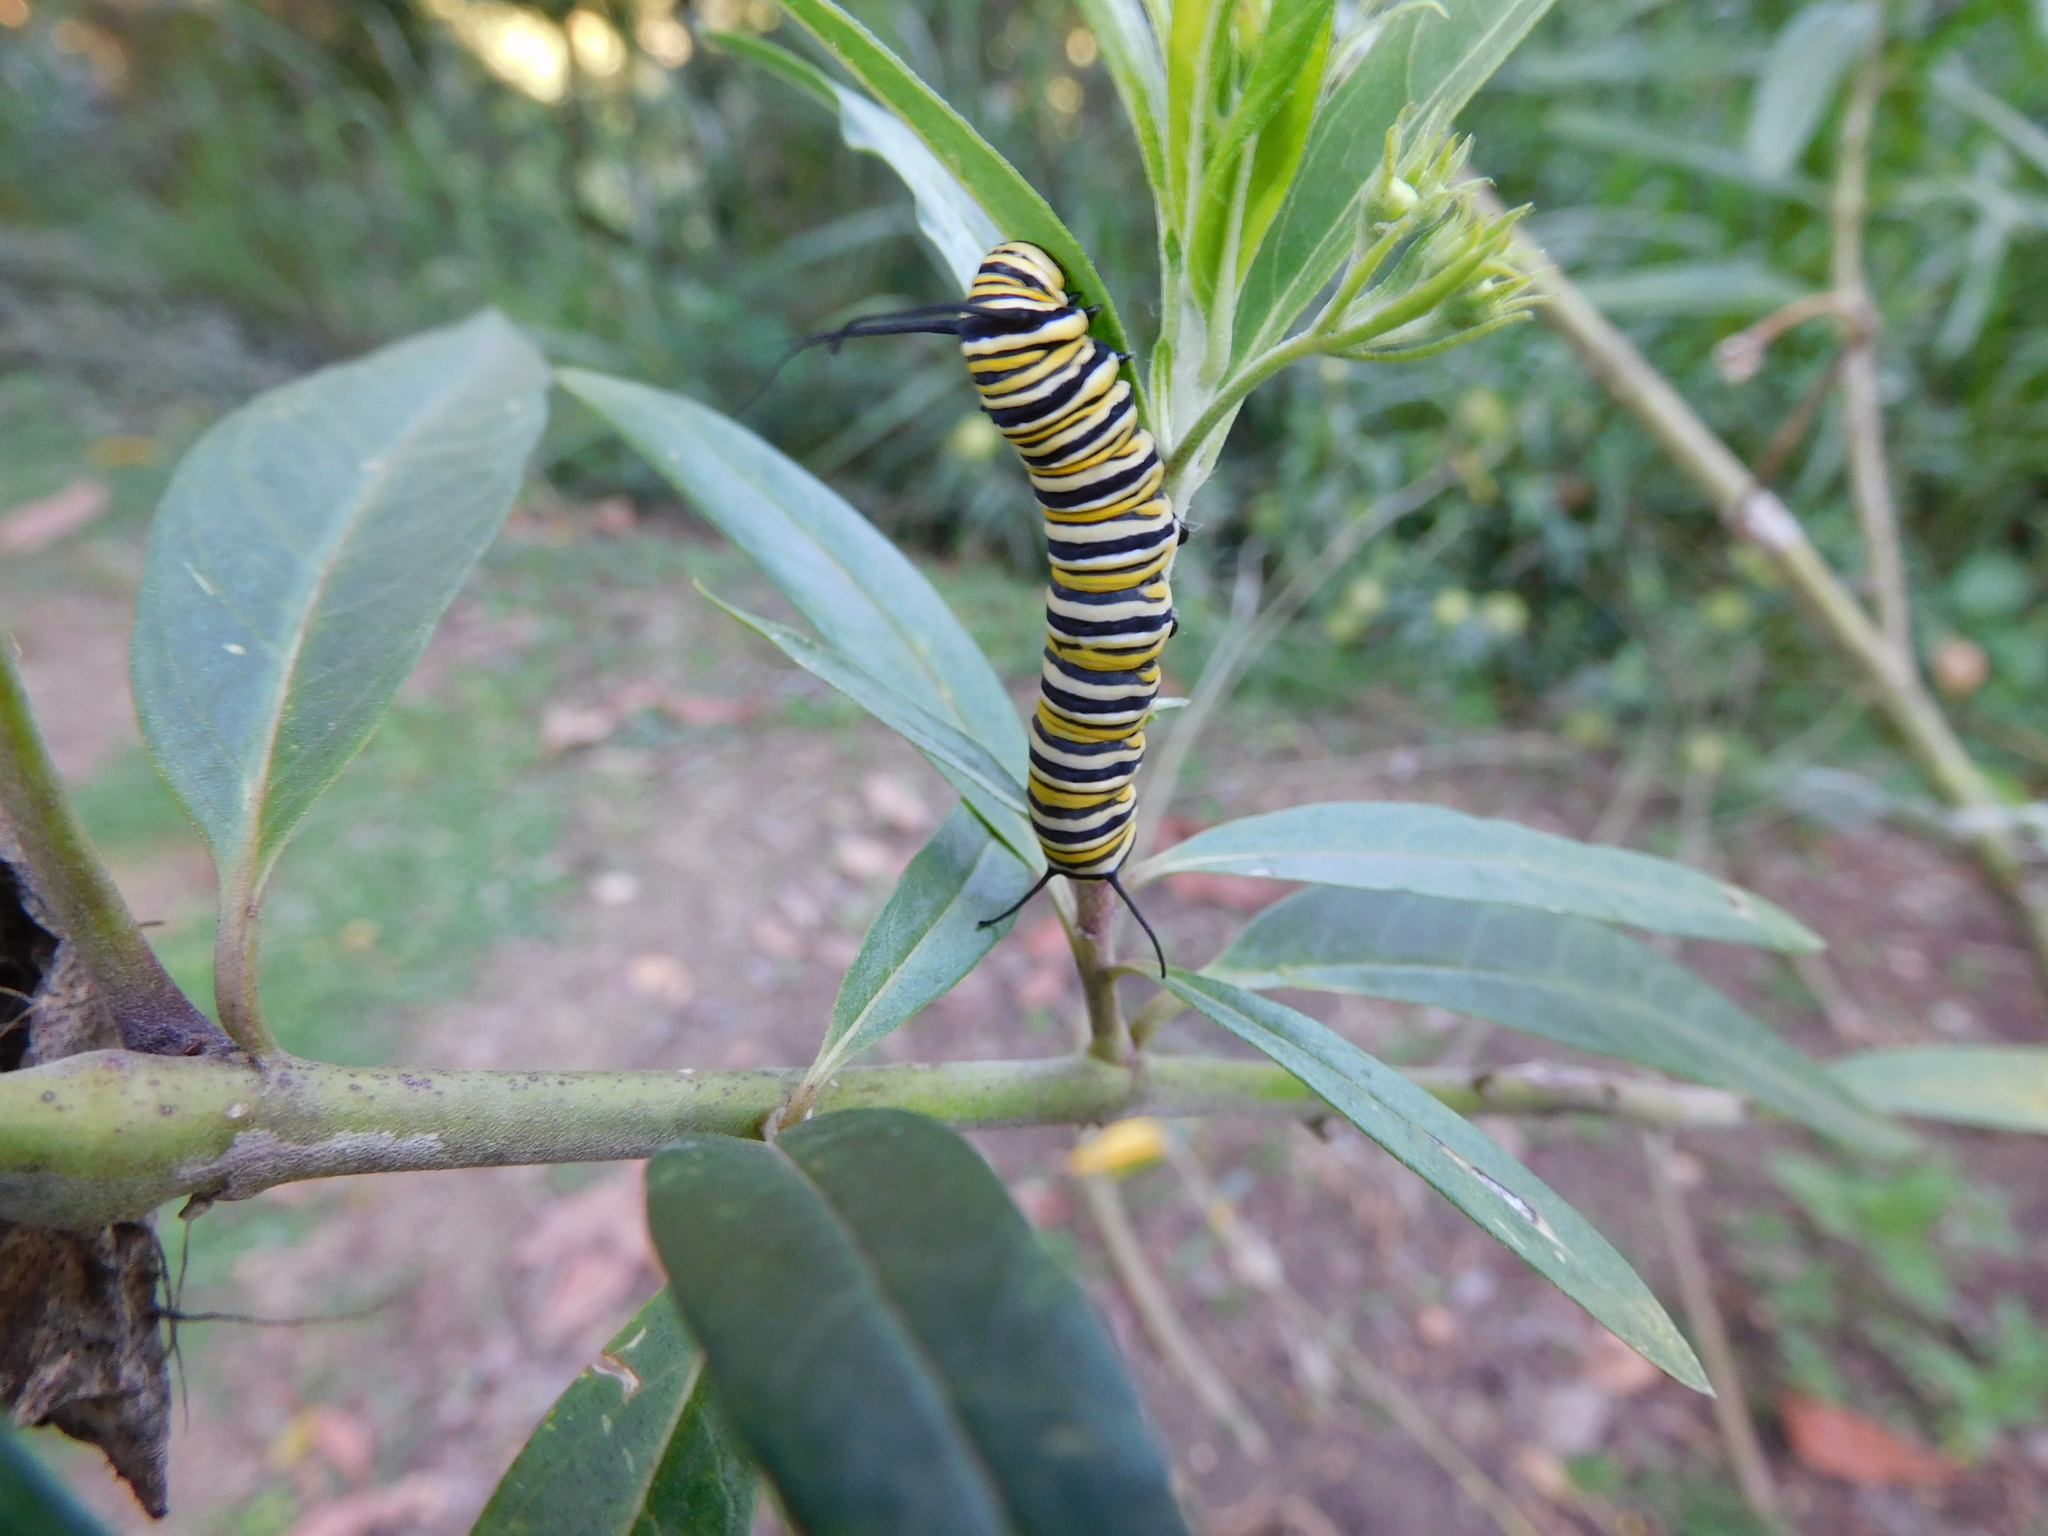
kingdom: Animalia
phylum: Arthropoda
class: Insecta
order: Lepidoptera
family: Nymphalidae
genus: Danaus
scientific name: Danaus plexippus
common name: Monarch
